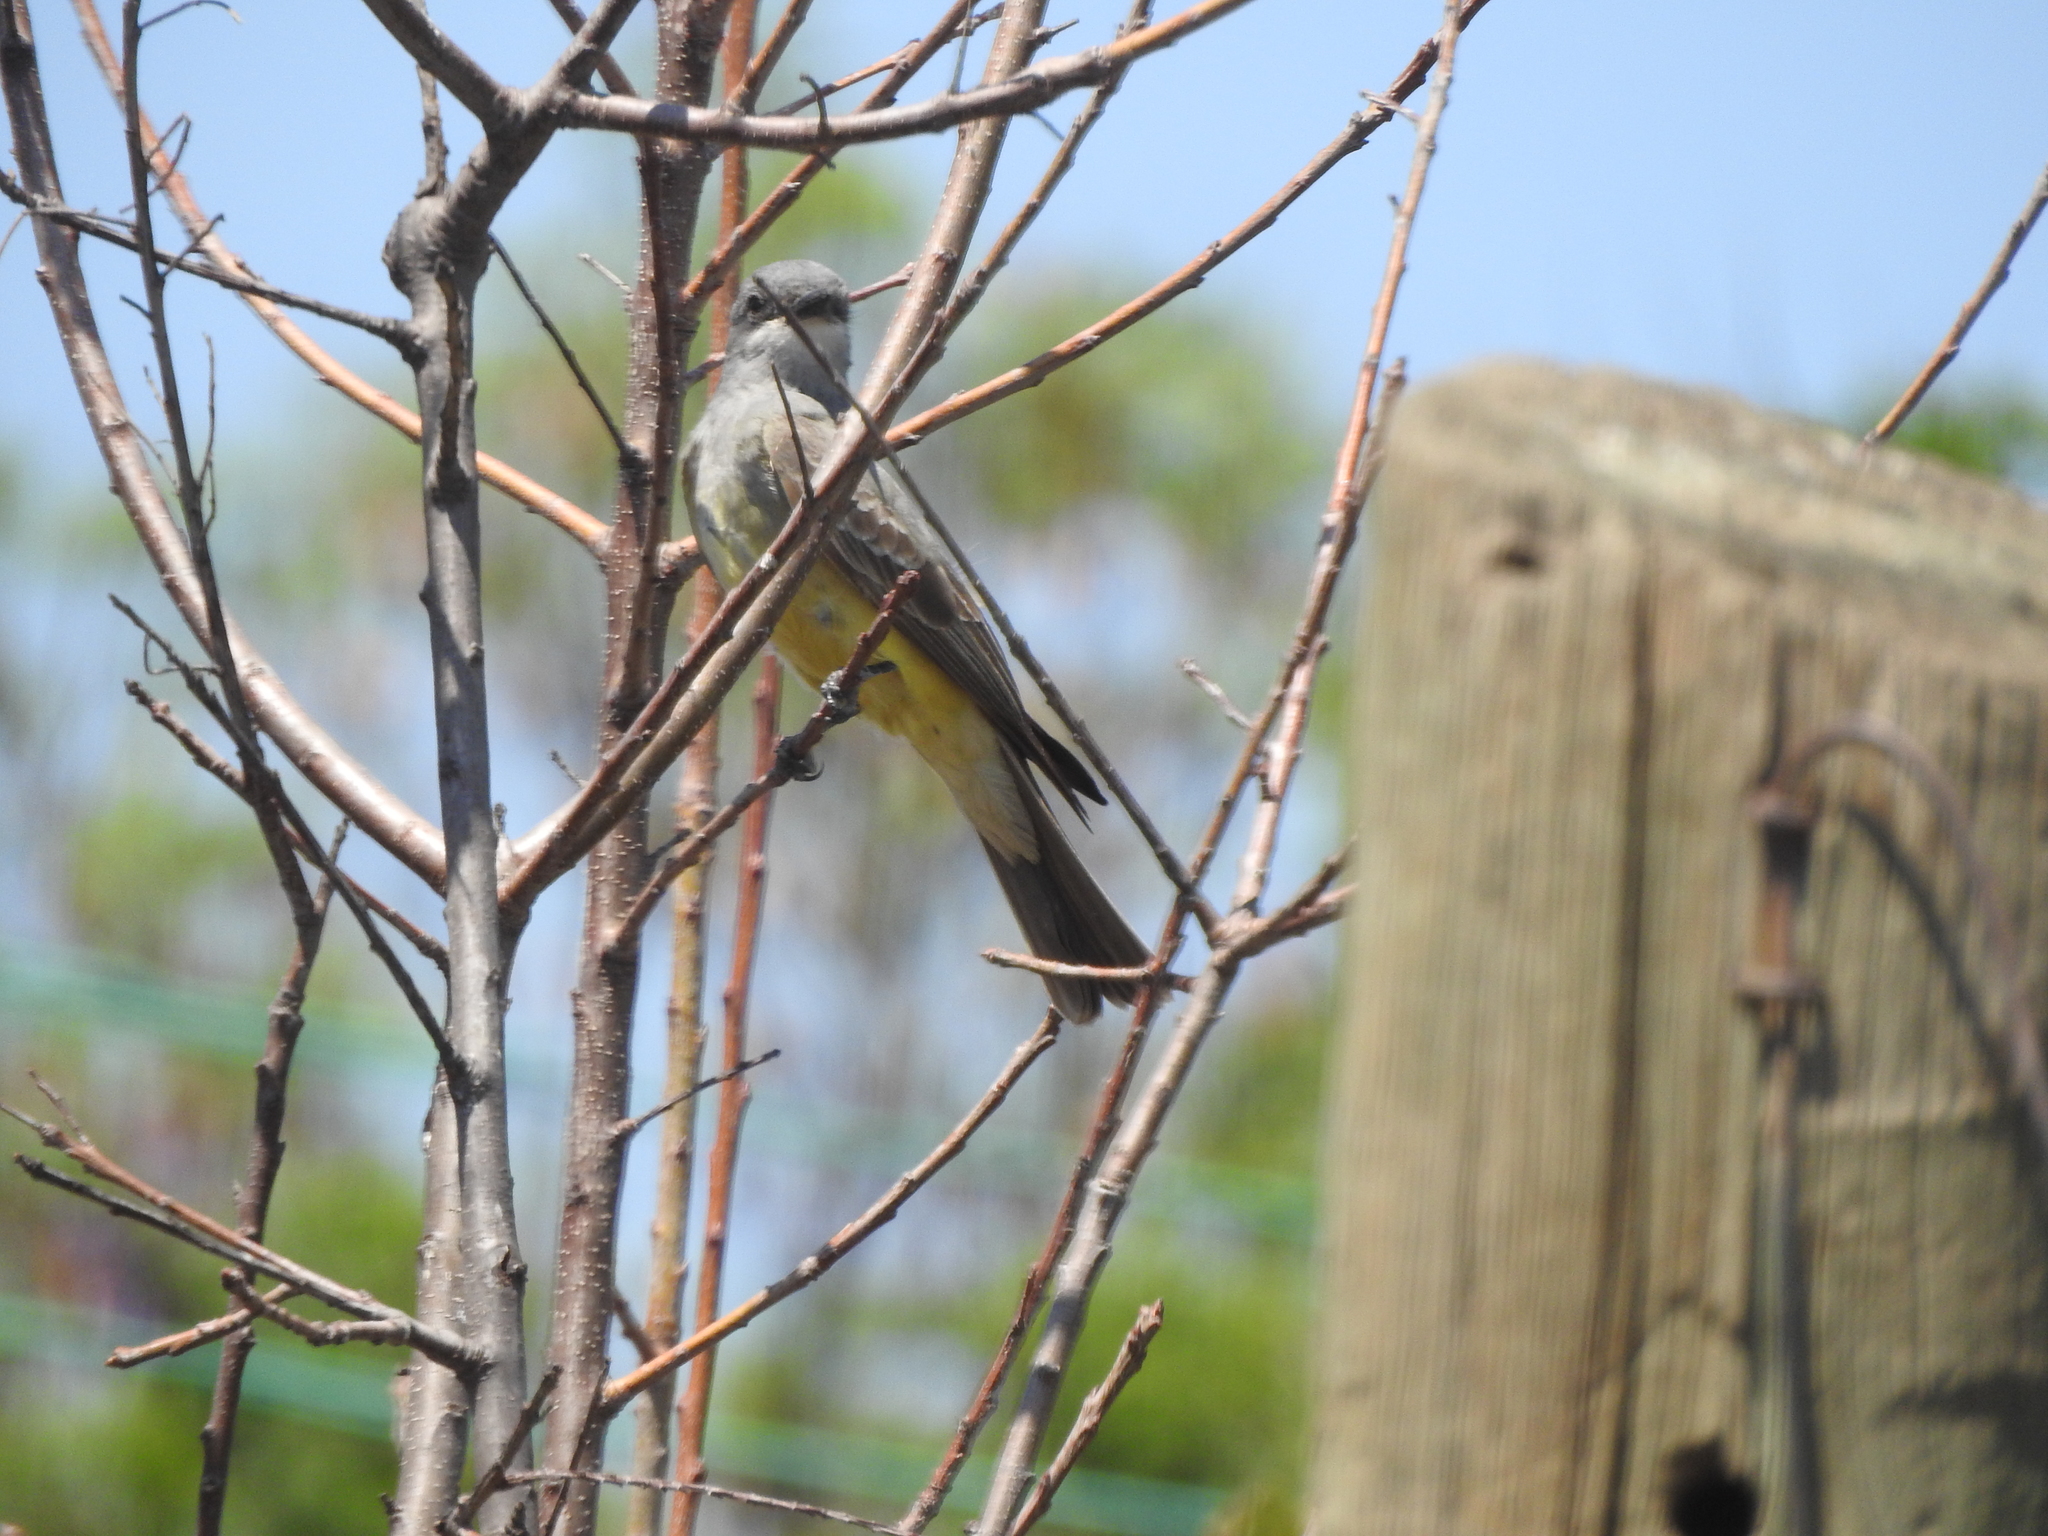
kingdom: Animalia
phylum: Chordata
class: Aves
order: Passeriformes
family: Tyrannidae
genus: Tyrannus
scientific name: Tyrannus vociferans
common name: Cassin's kingbird
